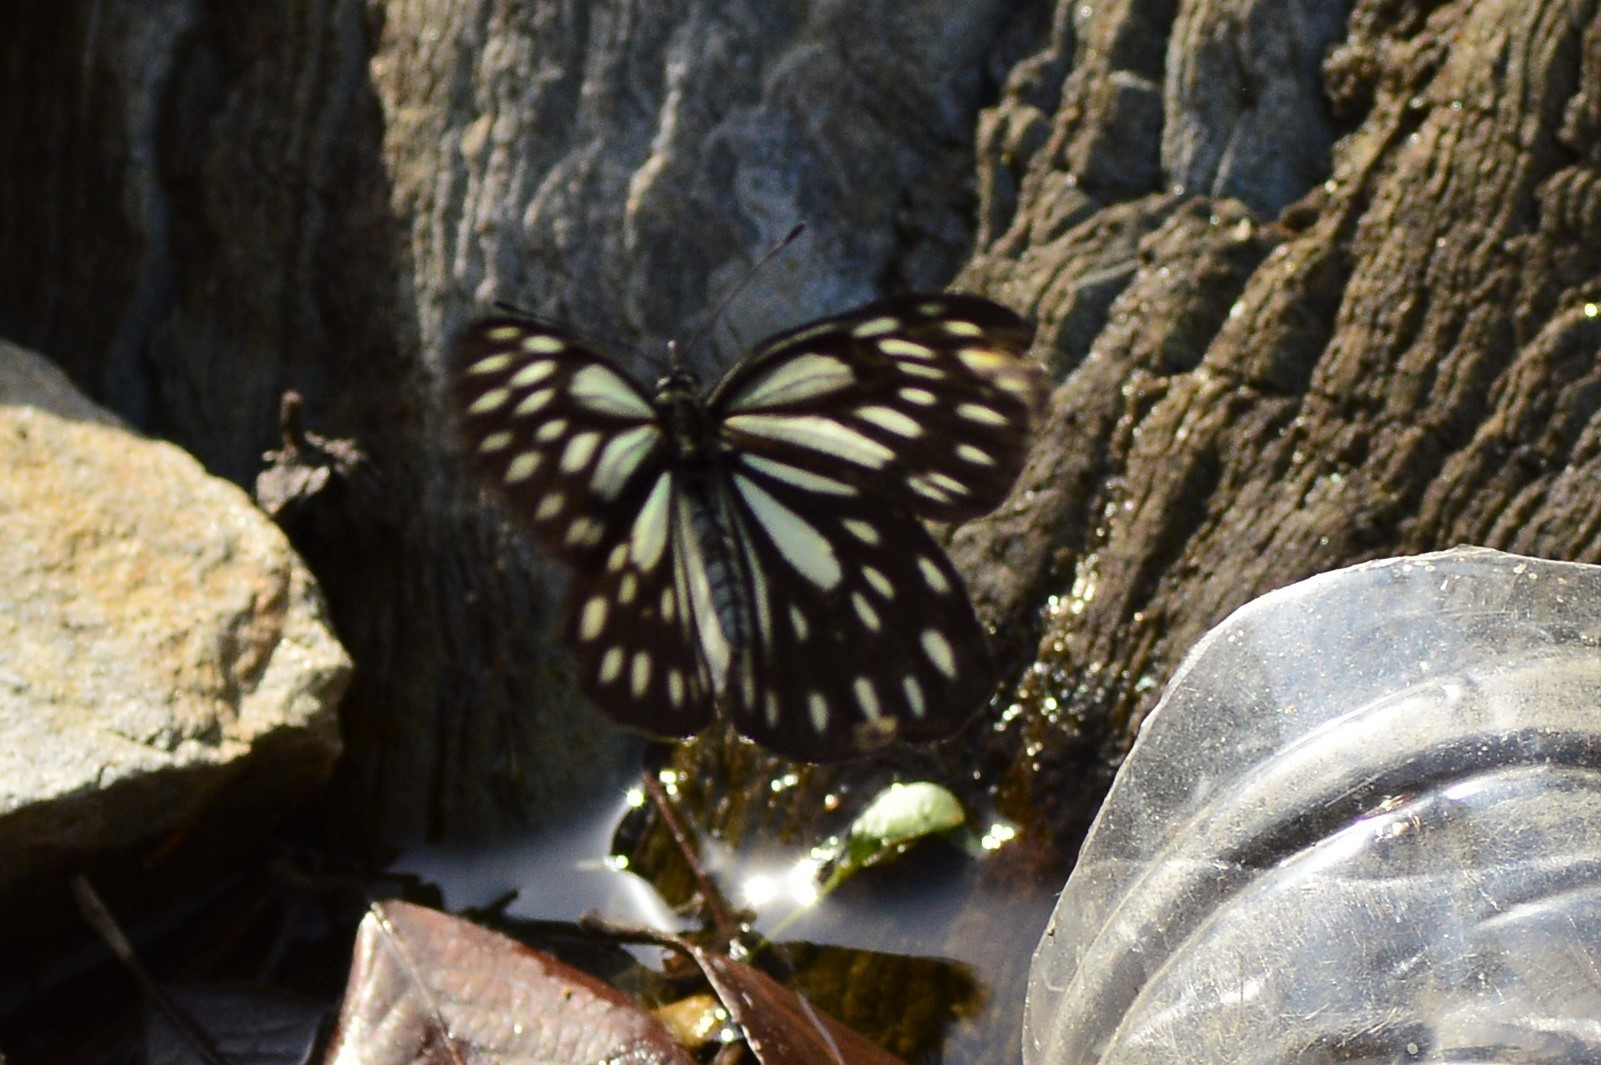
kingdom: Animalia
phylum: Arthropoda
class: Insecta
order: Lepidoptera
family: Pieridae
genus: Aporia
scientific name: Aporia agathon
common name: Great blackvein
